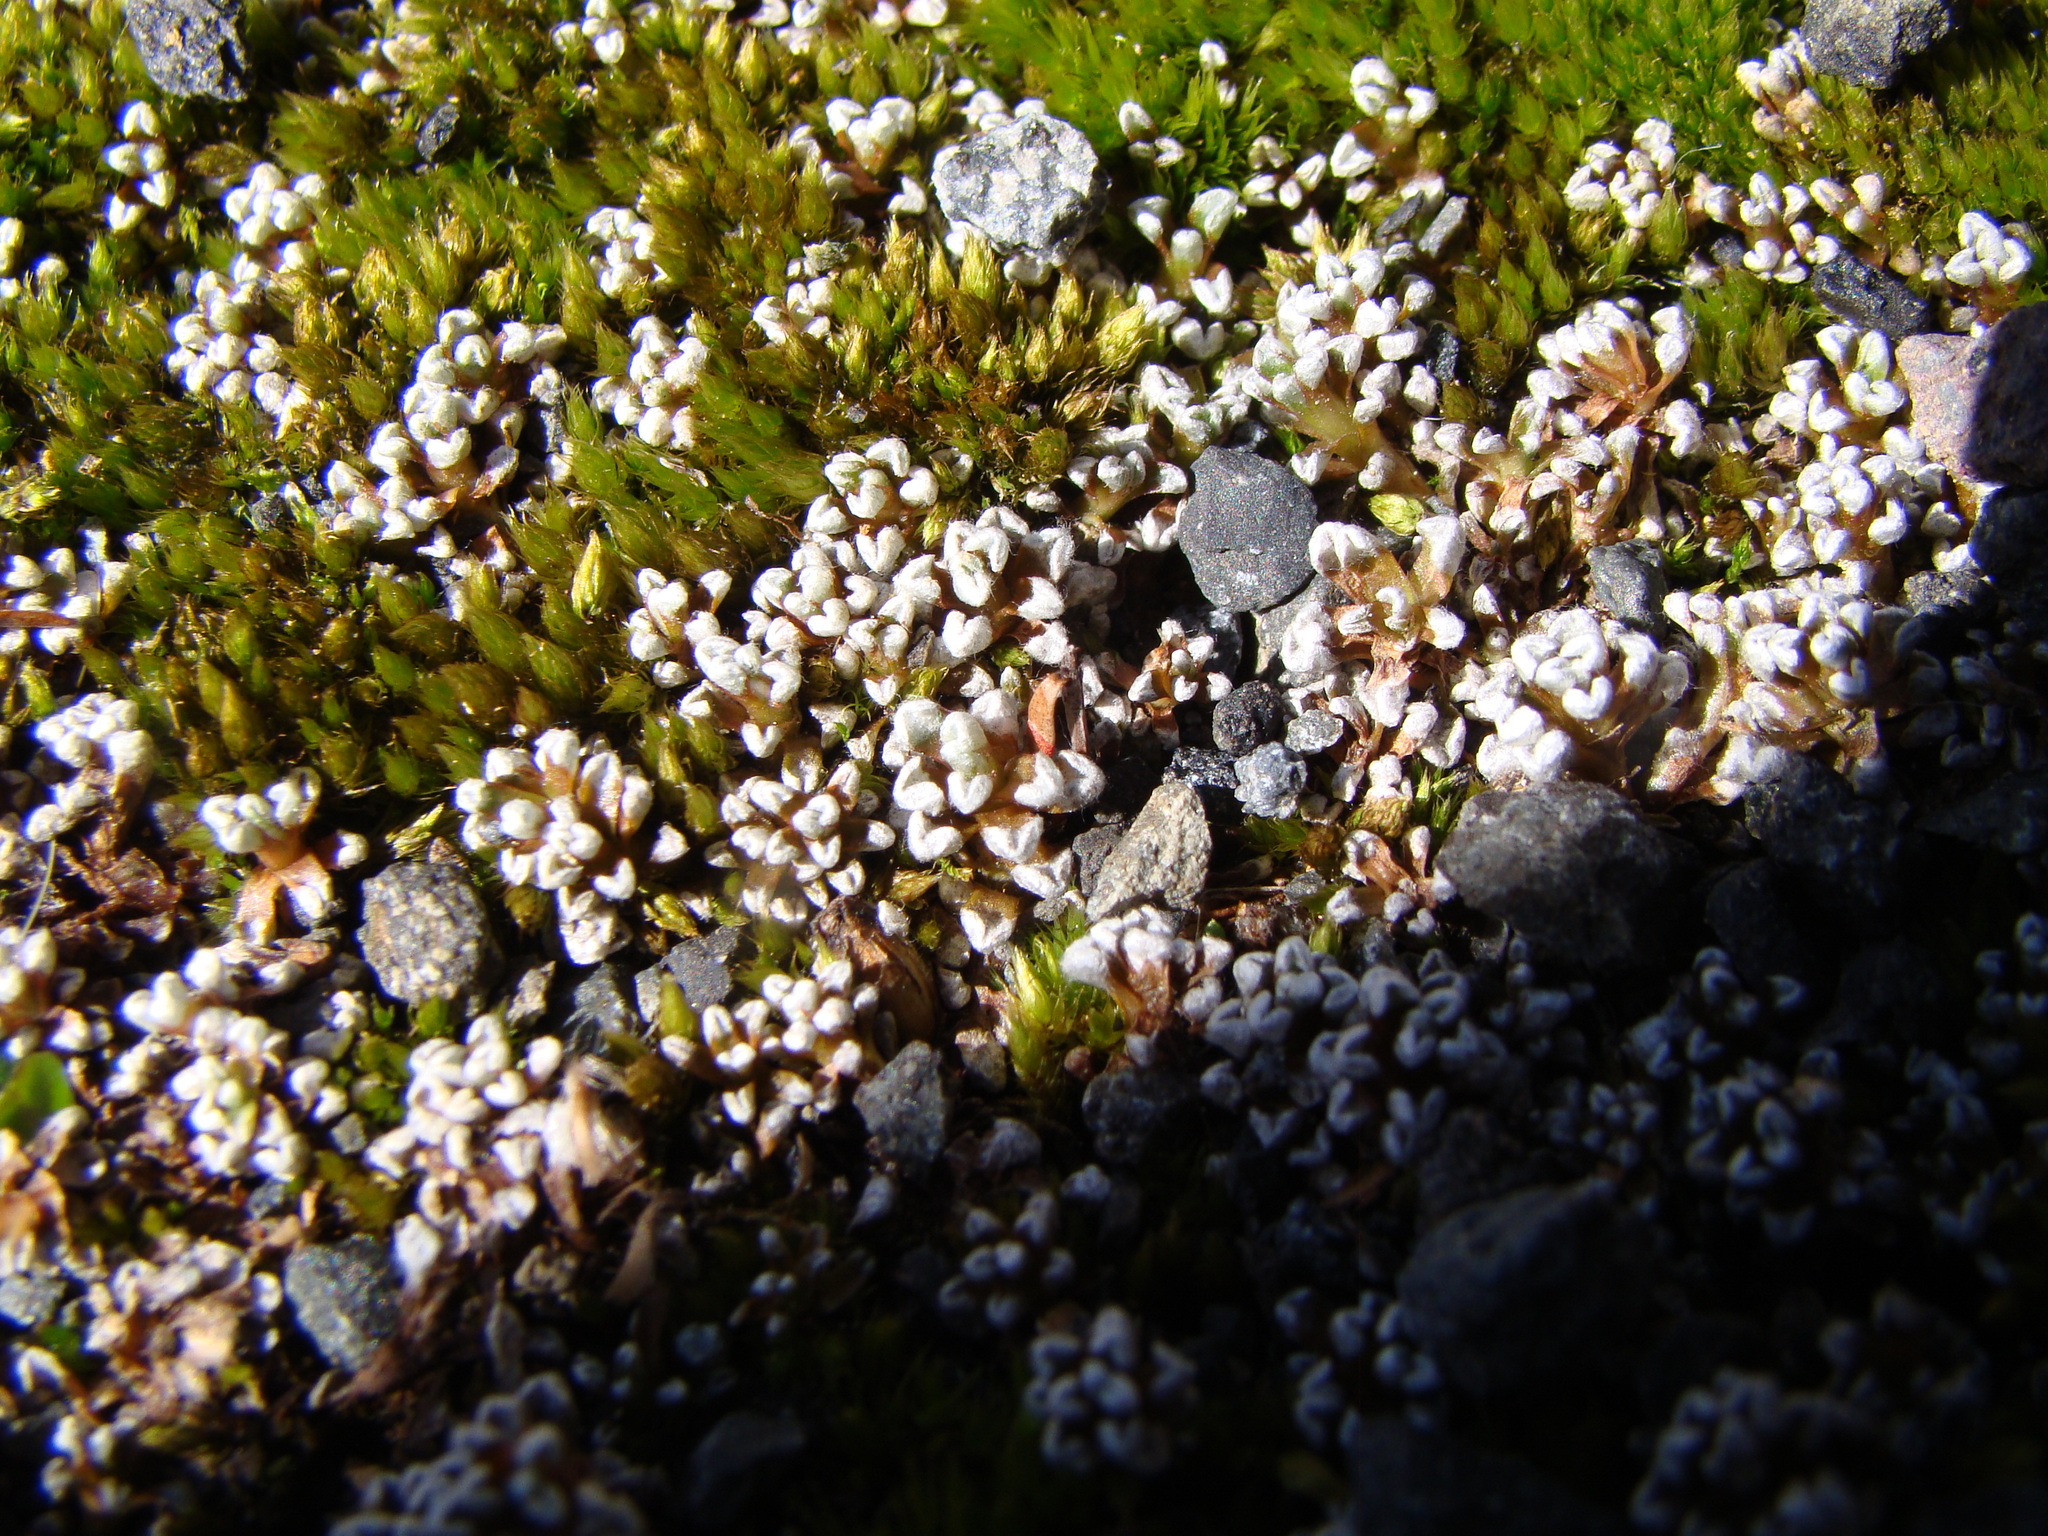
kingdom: Plantae
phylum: Tracheophyta
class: Magnoliopsida
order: Asterales
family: Asteraceae
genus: Raoulia
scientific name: Raoulia albosericea
